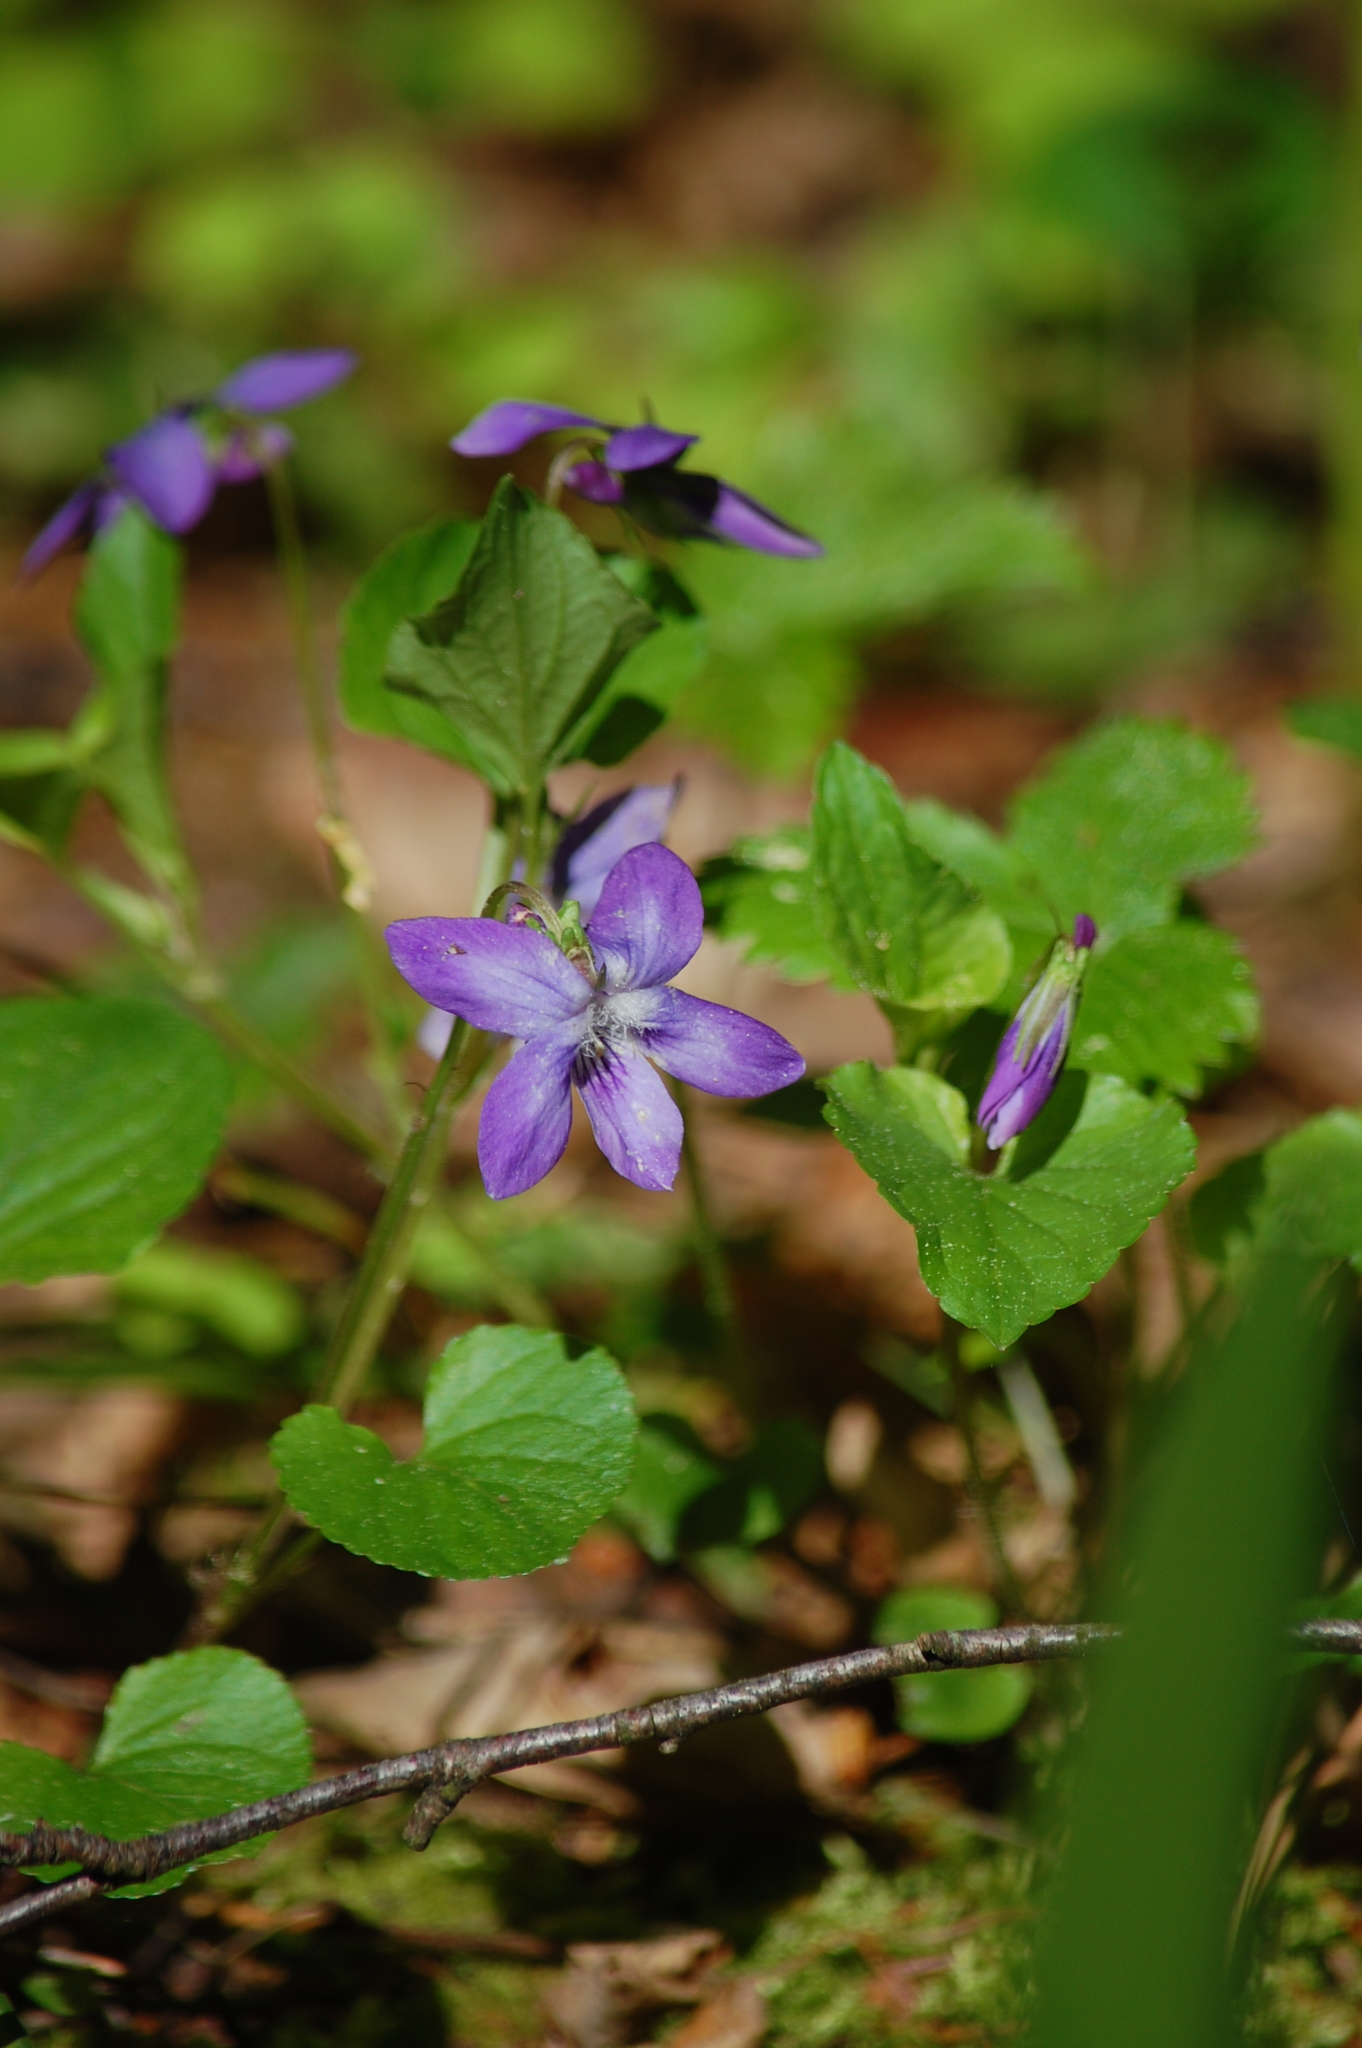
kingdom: Plantae
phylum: Tracheophyta
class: Magnoliopsida
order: Malpighiales
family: Violaceae
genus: Viola
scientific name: Viola riviniana
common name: Common dog-violet
